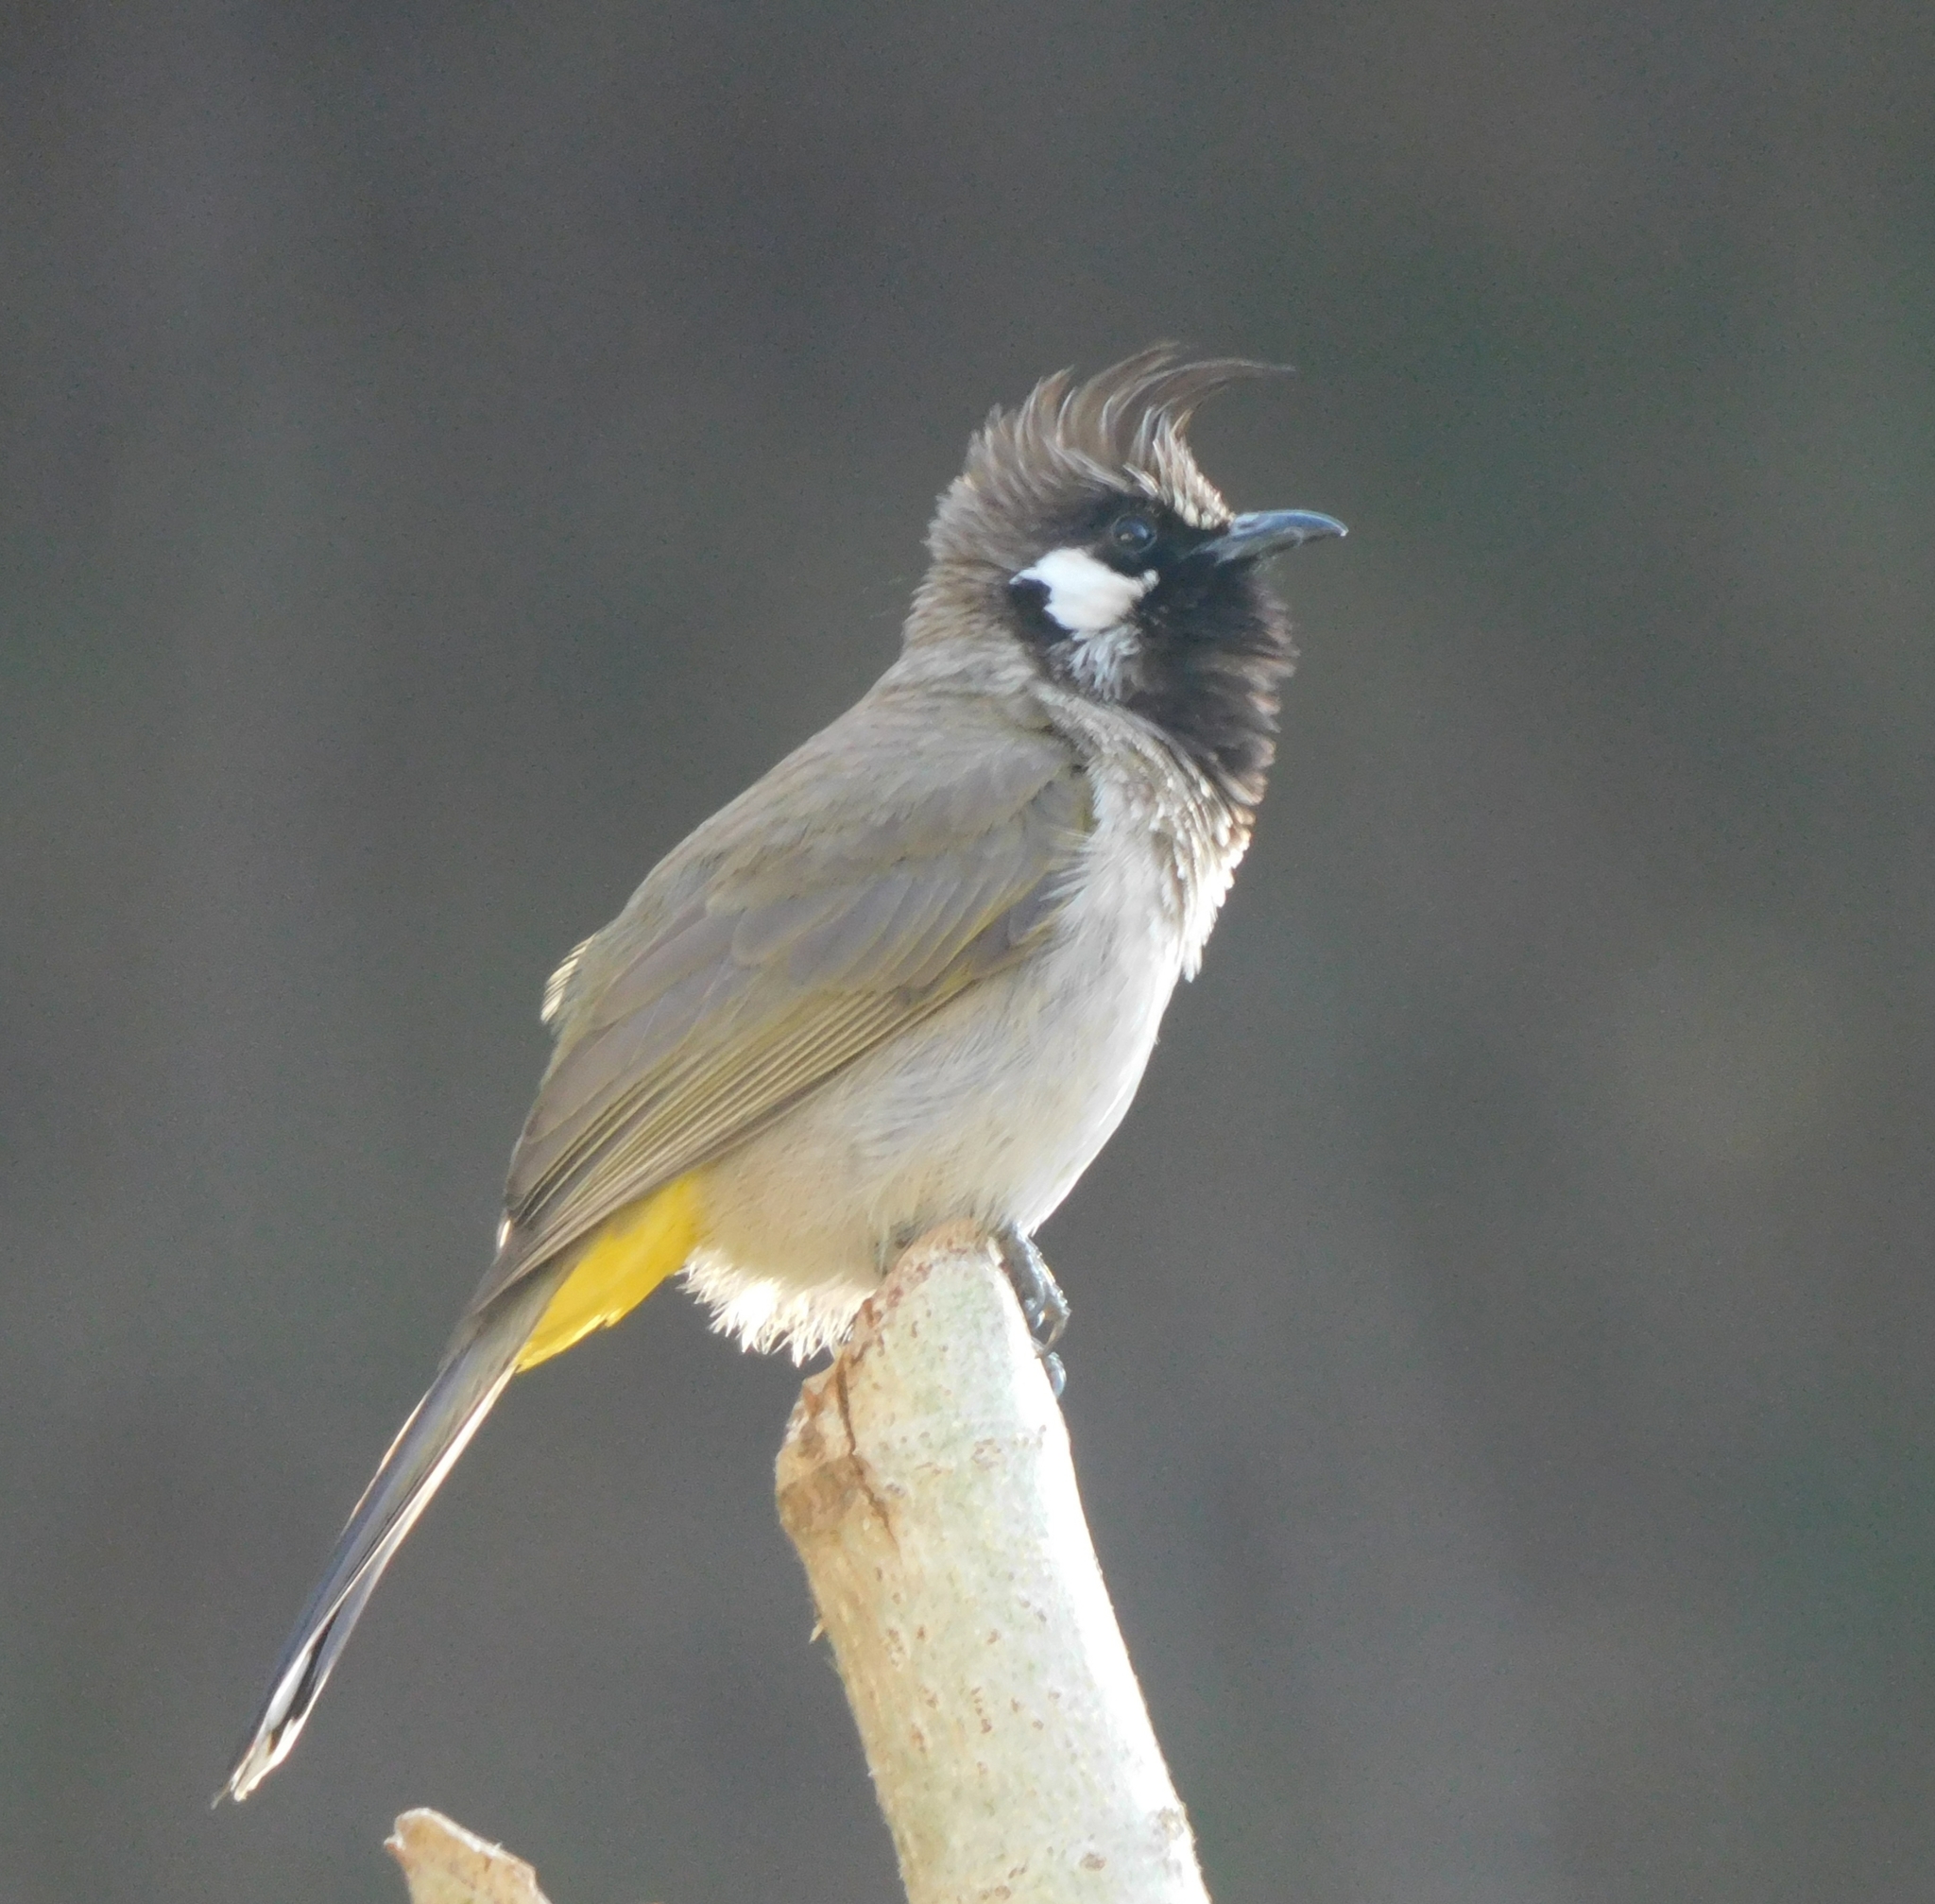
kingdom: Animalia
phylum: Chordata
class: Aves
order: Passeriformes
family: Pycnonotidae
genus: Pycnonotus
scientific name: Pycnonotus leucogenys
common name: Himalayan bulbul
